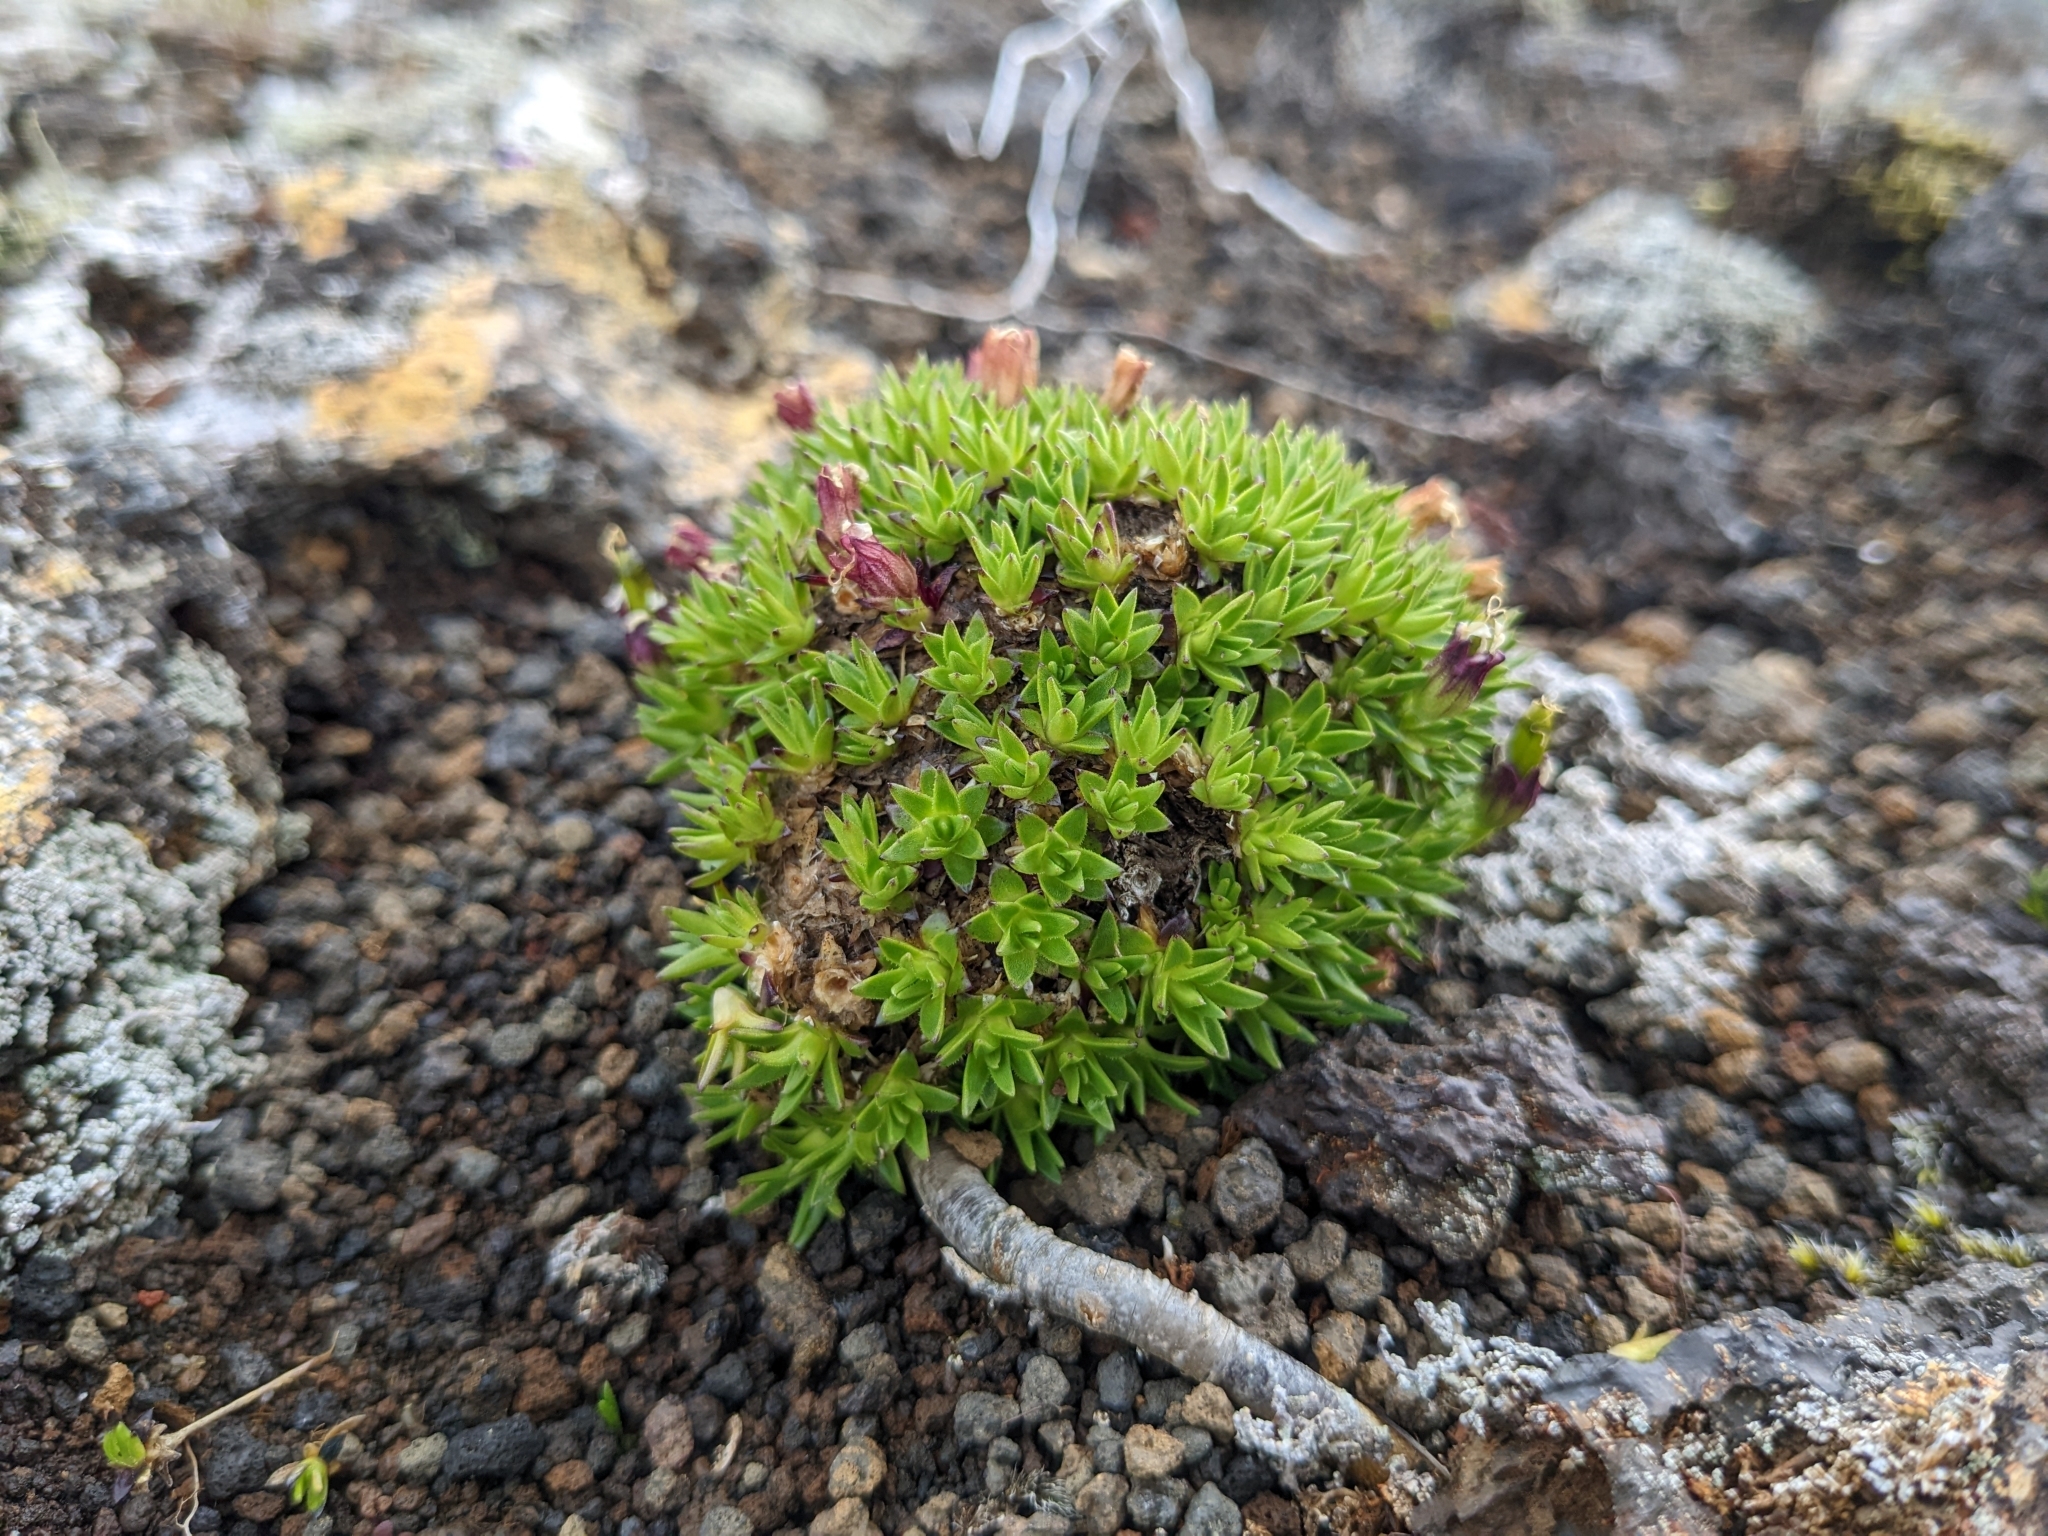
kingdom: Plantae
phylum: Tracheophyta
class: Magnoliopsida
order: Caryophyllales
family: Caryophyllaceae
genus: Silene
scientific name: Silene acaulis
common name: Moss campion
